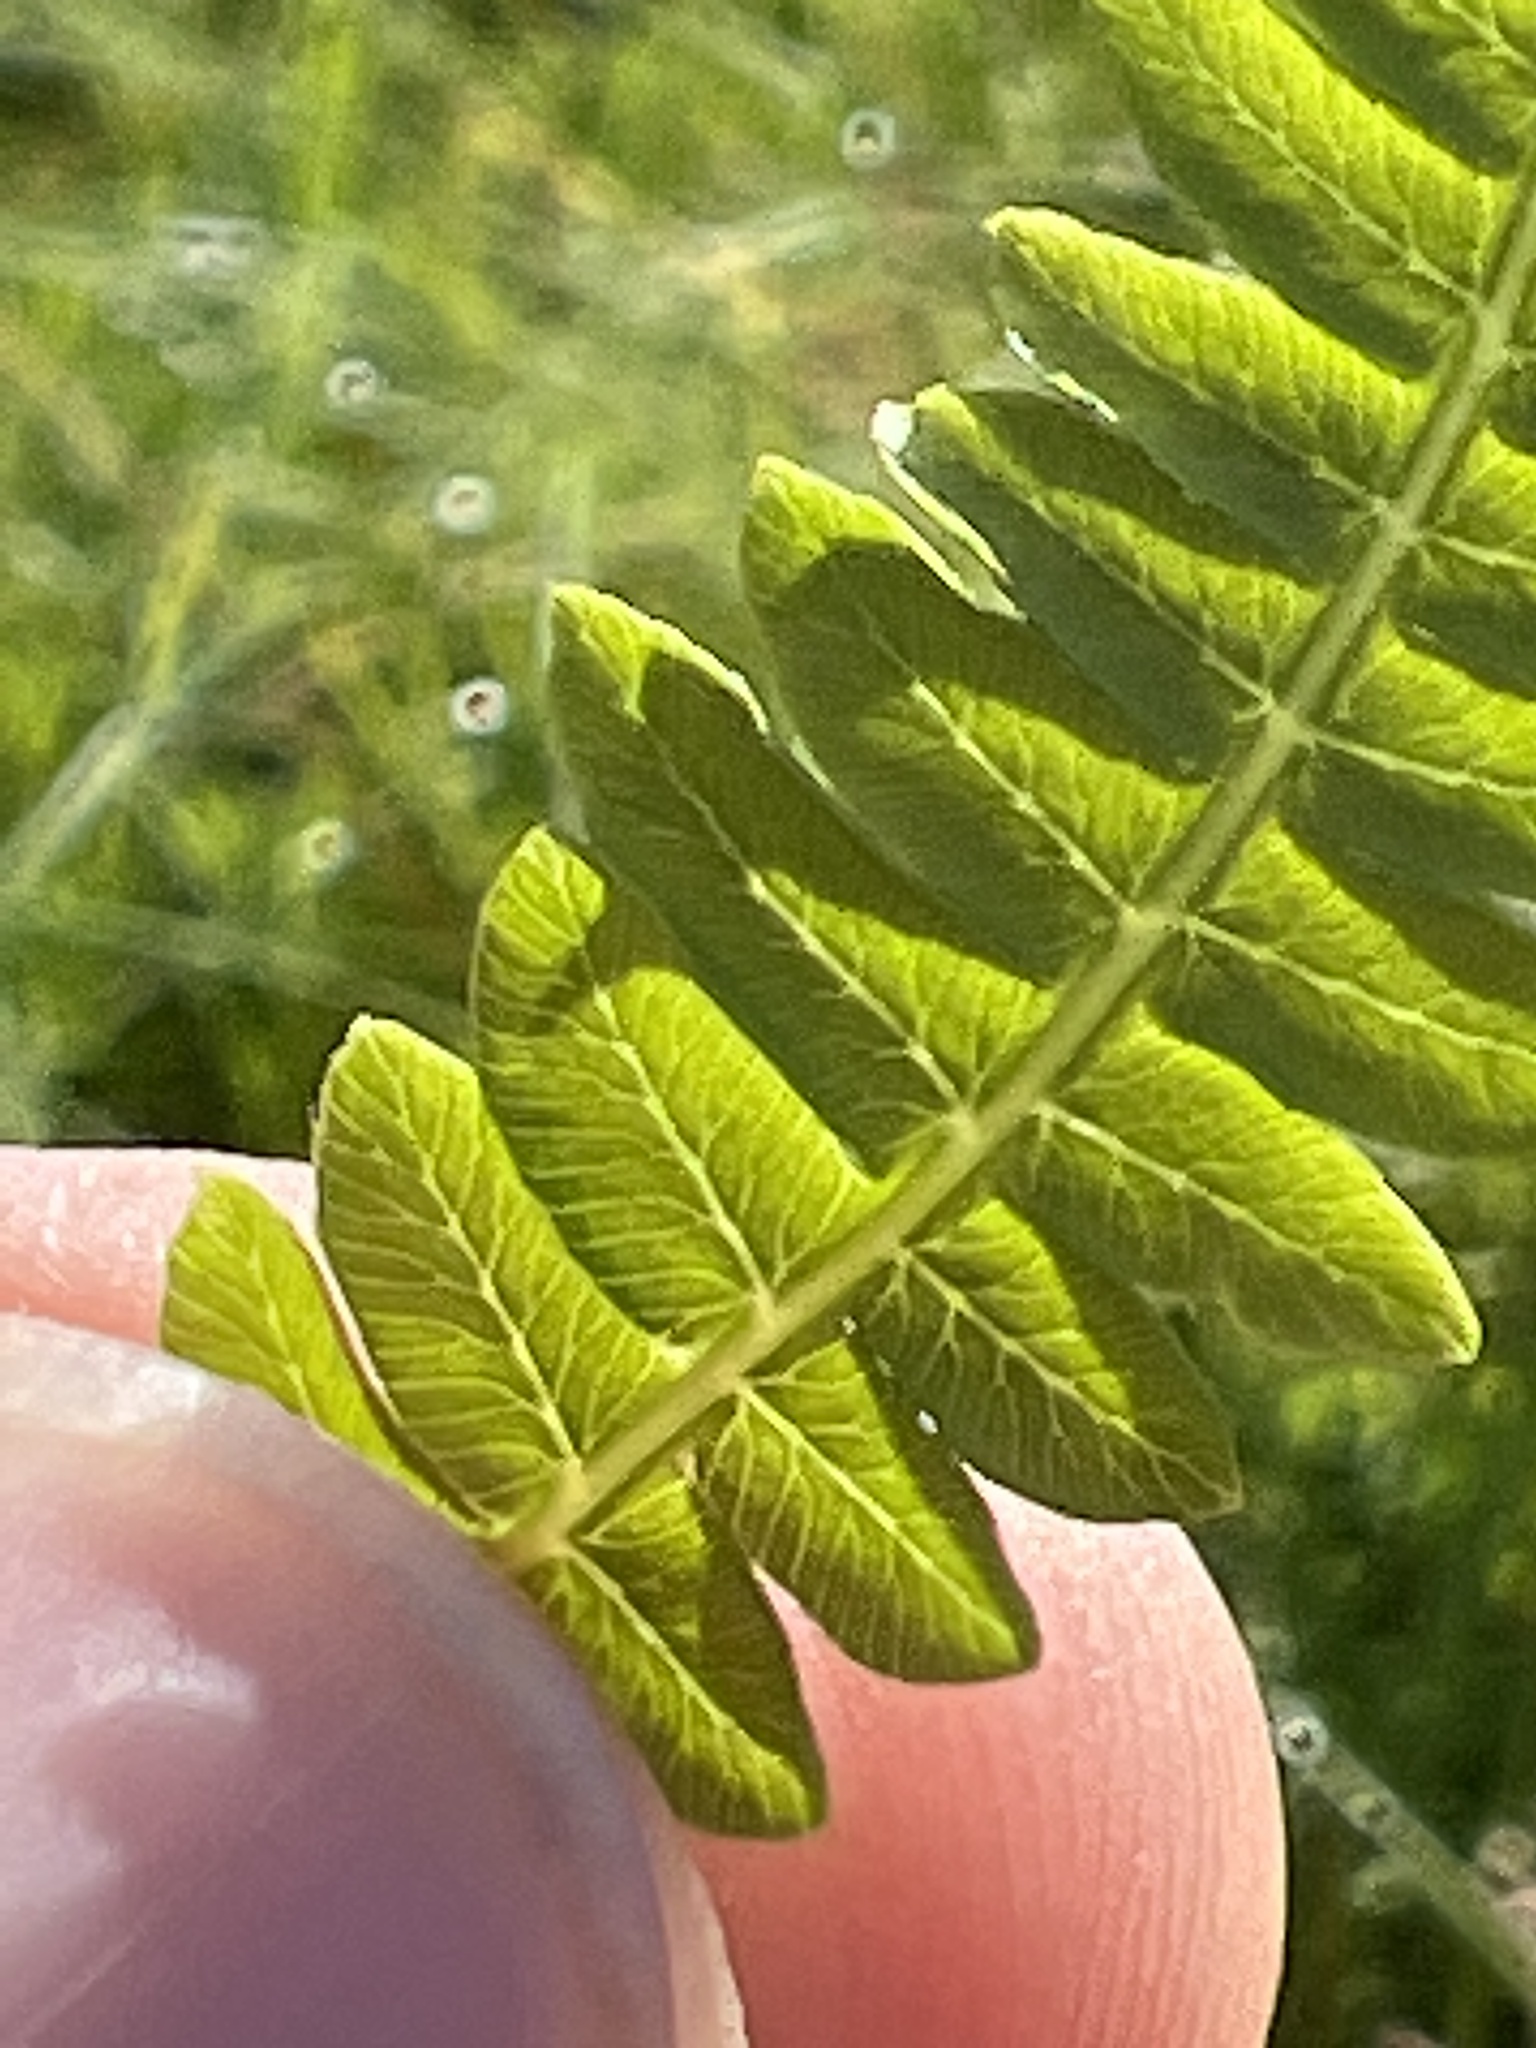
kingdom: Plantae
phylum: Tracheophyta
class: Polypodiopsida
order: Polypodiales
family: Thelypteridaceae
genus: Thelypteris
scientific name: Thelypteris palustris
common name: Marsh fern
